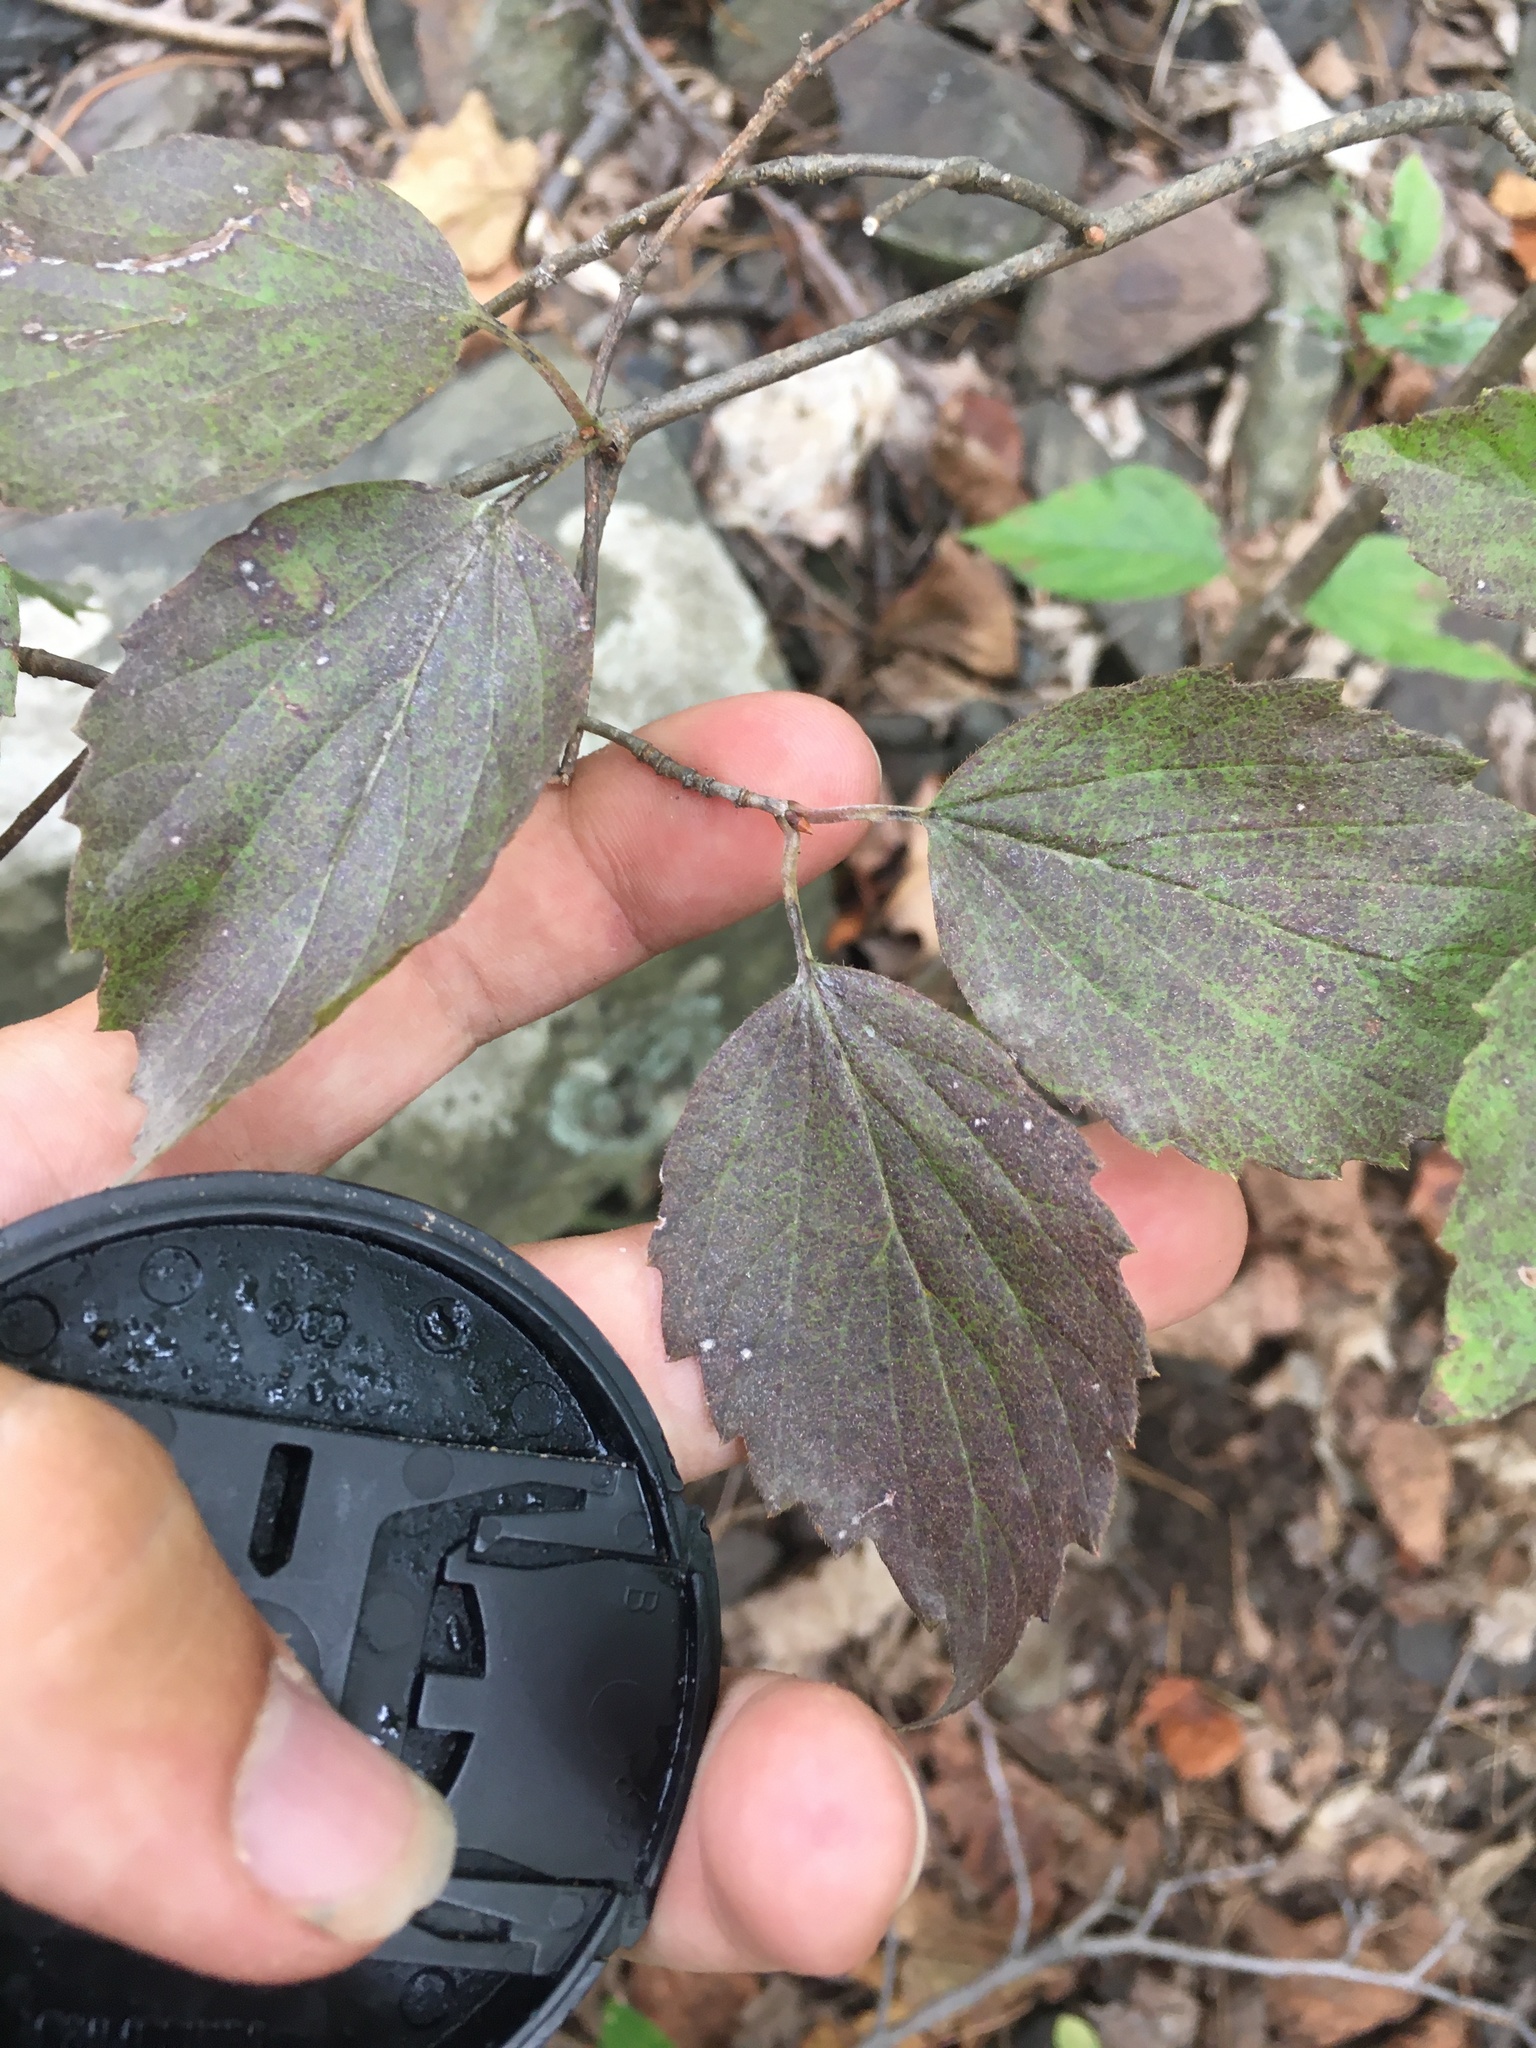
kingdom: Plantae
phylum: Tracheophyta
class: Magnoliopsida
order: Dipsacales
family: Viburnaceae
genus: Viburnum
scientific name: Viburnum rafinesqueanum
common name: Downy arrow-wood
